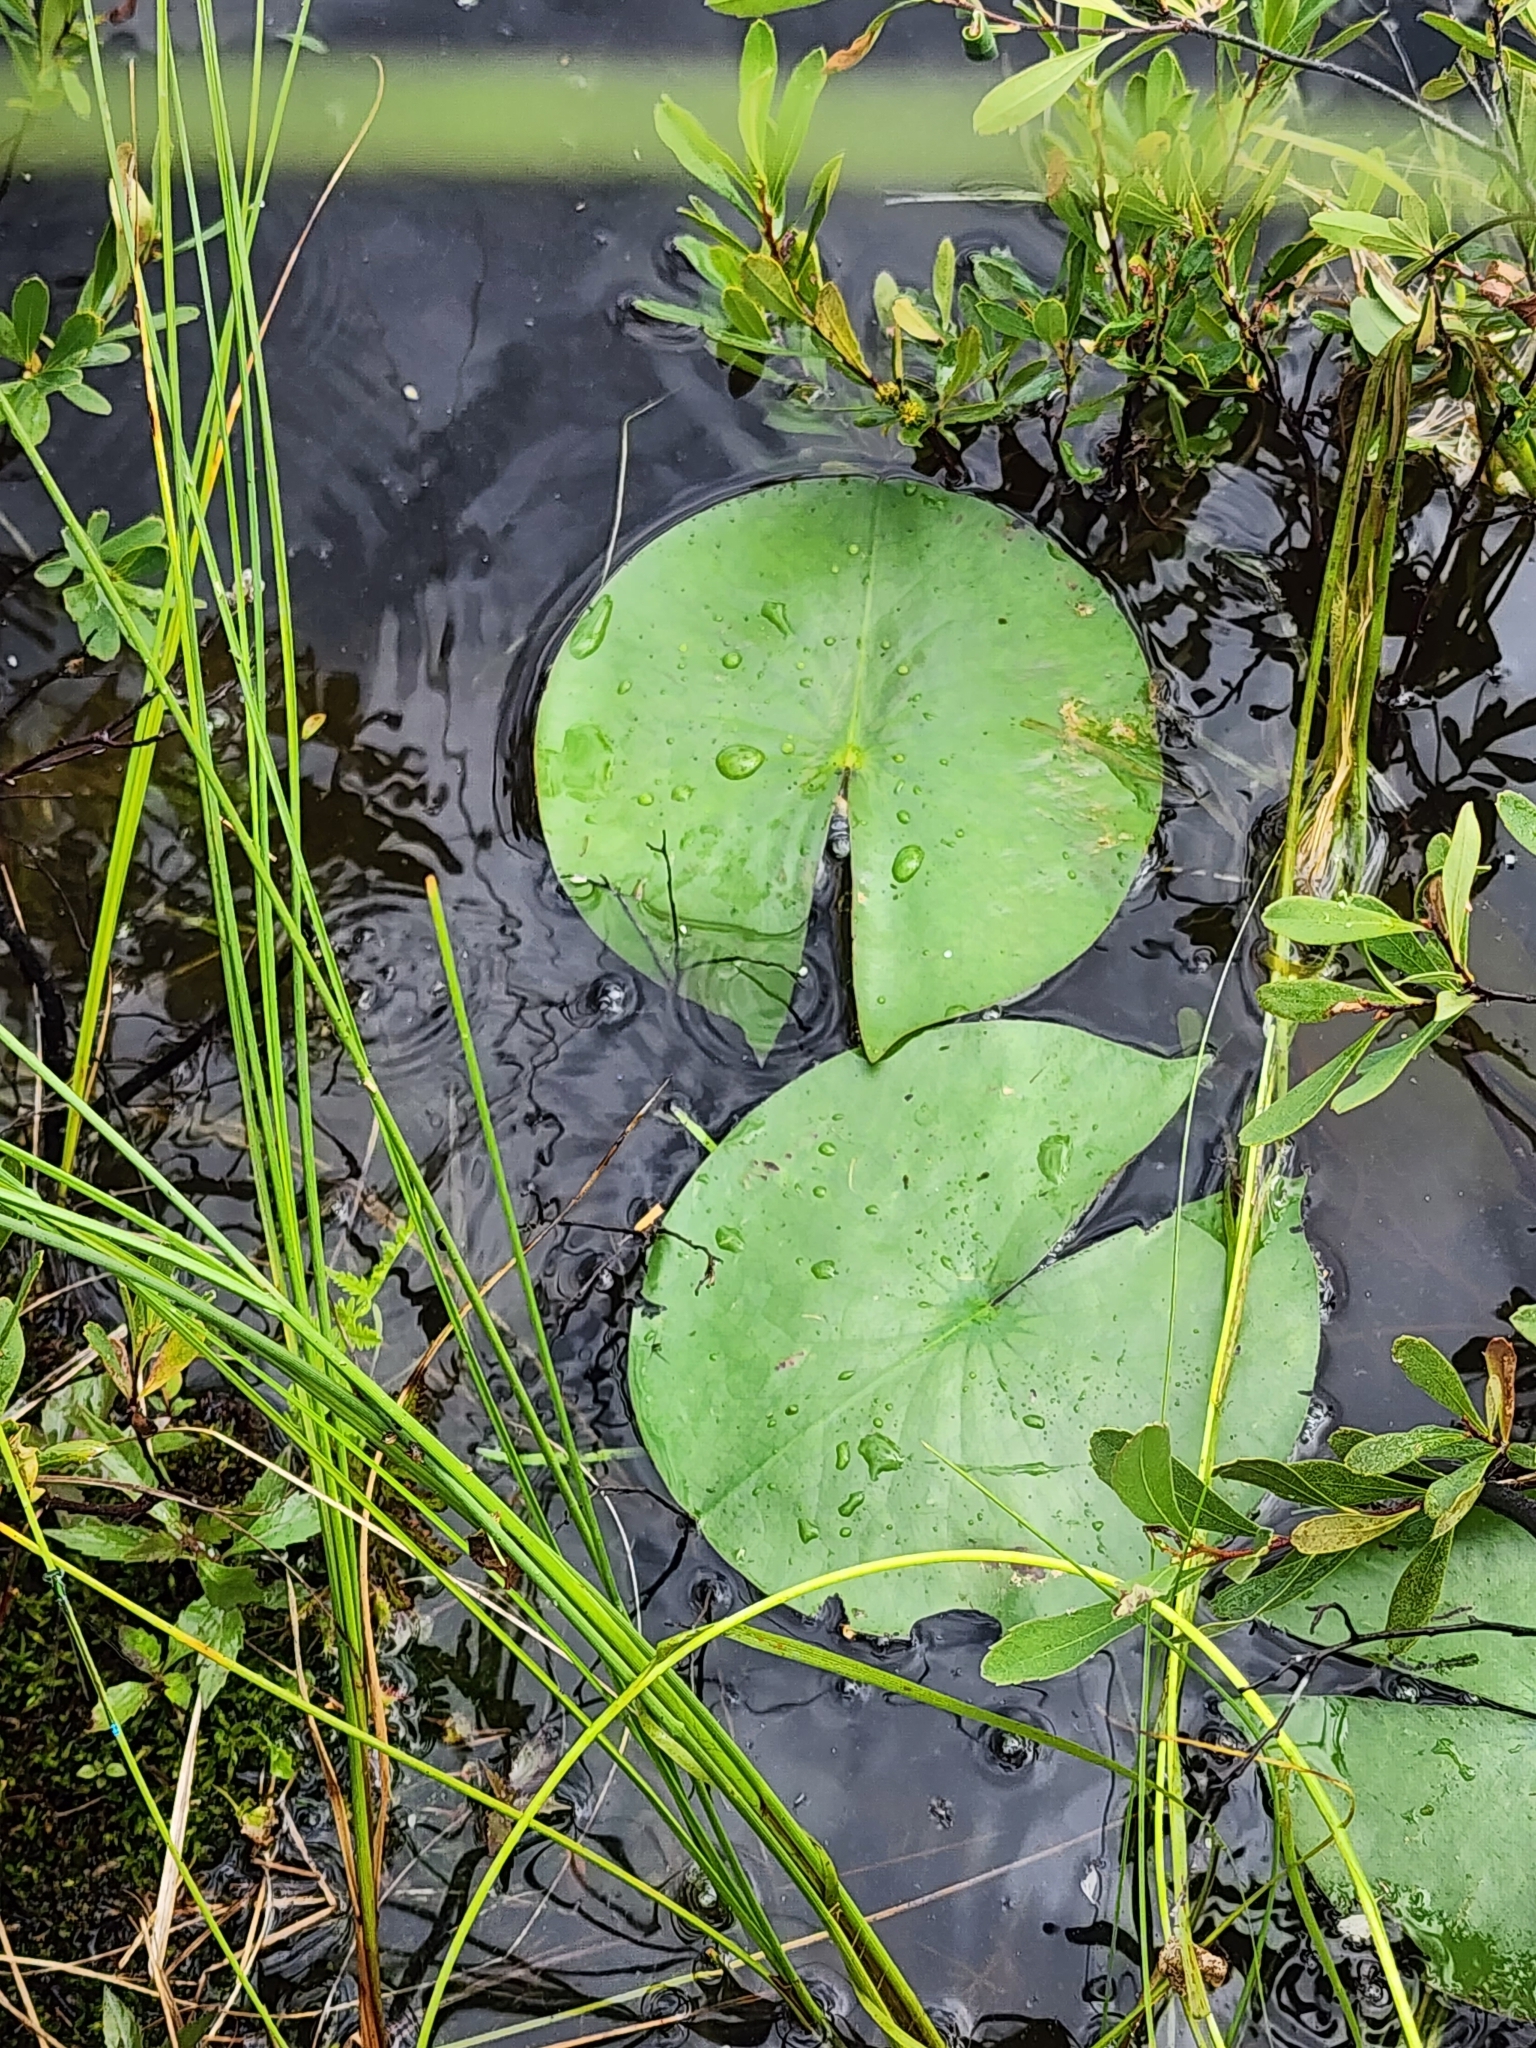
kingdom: Plantae
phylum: Tracheophyta
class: Magnoliopsida
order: Nymphaeales
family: Nymphaeaceae
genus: Nymphaea
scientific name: Nymphaea odorata
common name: Fragrant water-lily
